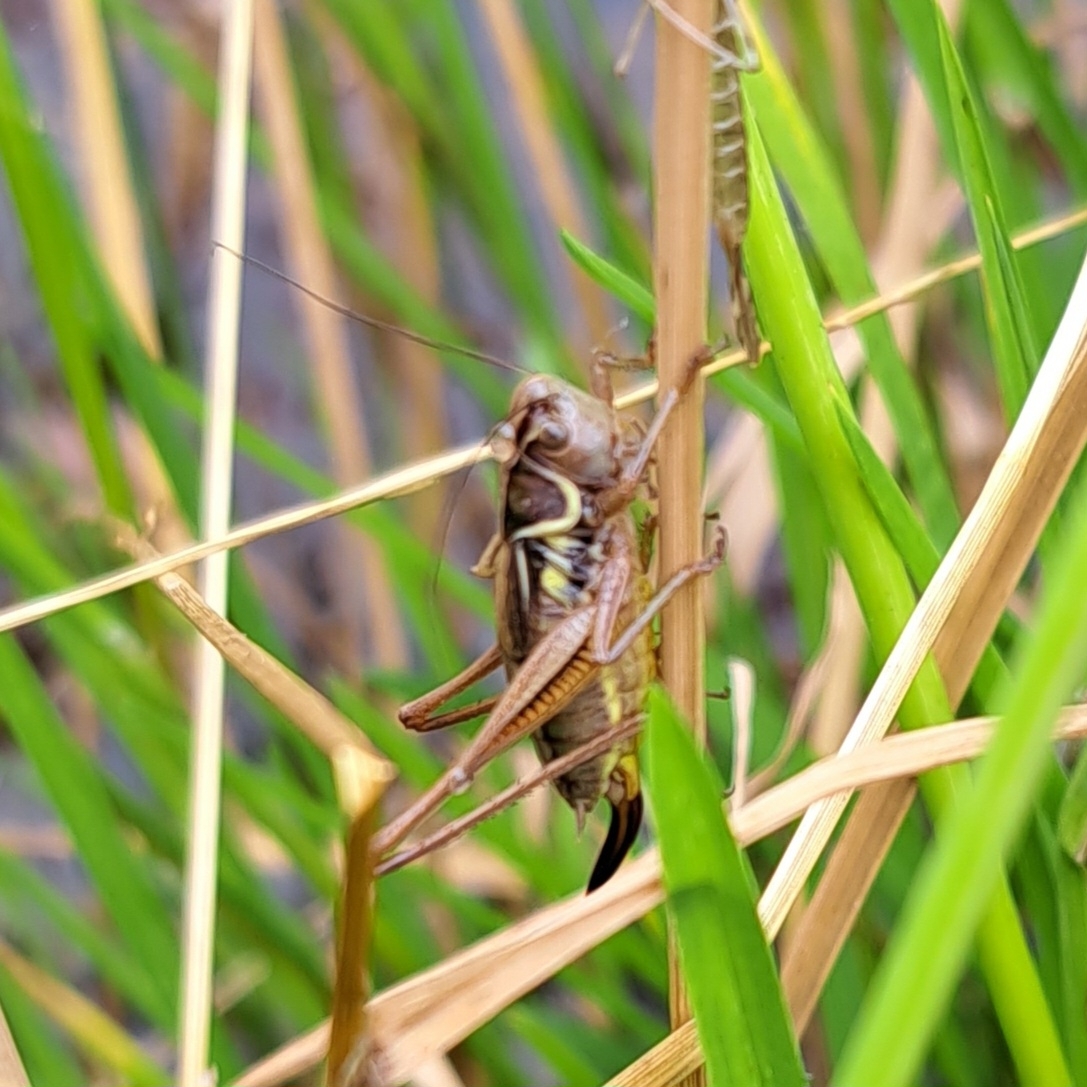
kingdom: Animalia
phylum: Arthropoda
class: Insecta
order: Orthoptera
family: Tettigoniidae
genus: Roeseliana
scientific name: Roeseliana roeselii
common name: Roesel's bush cricket
